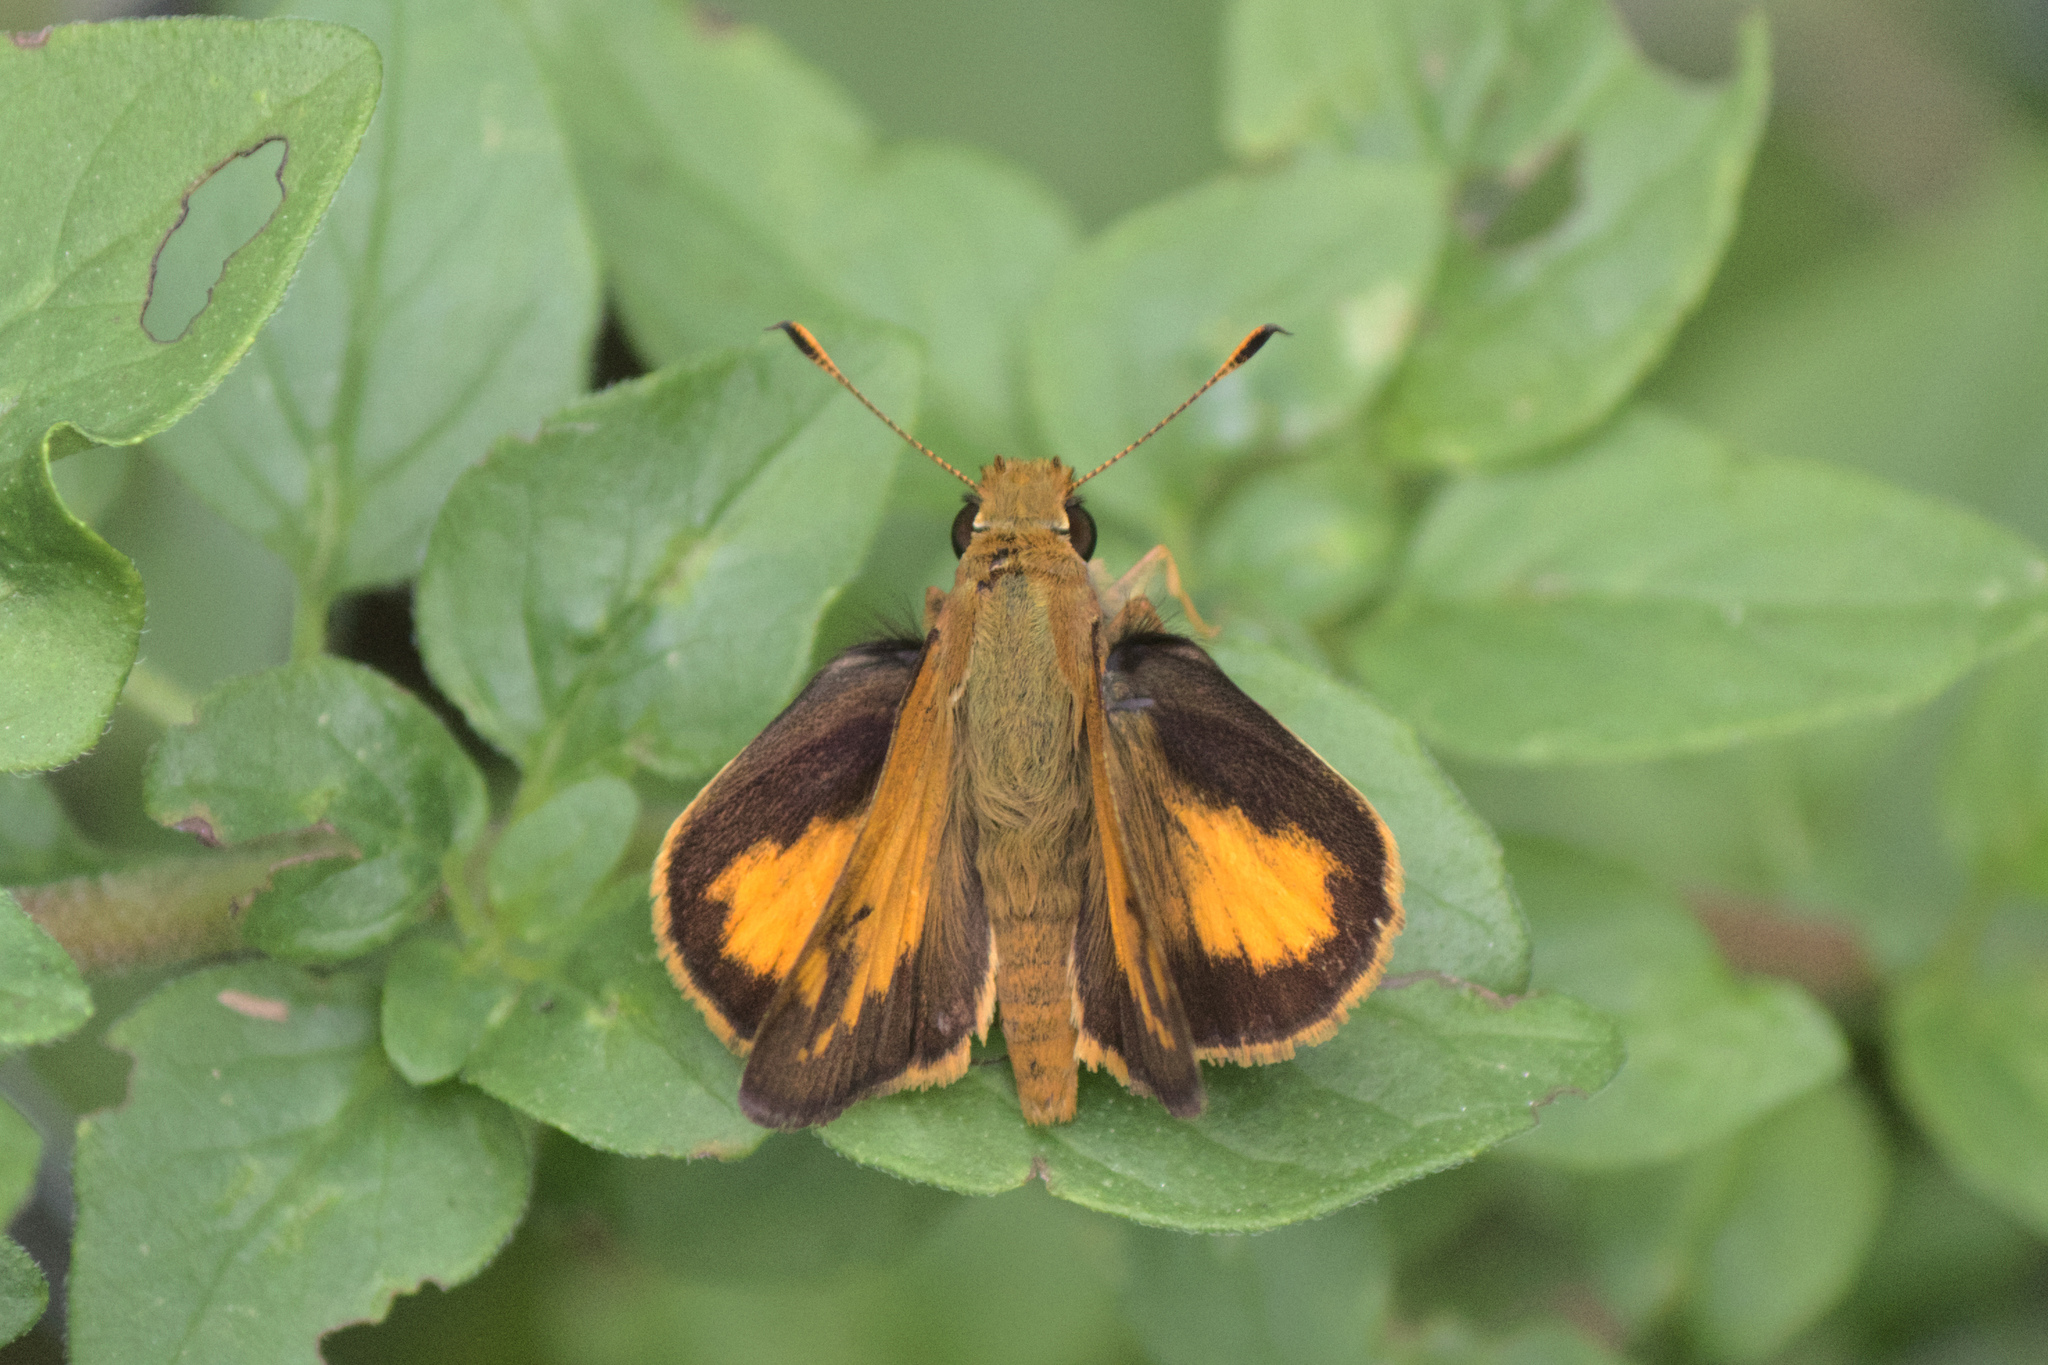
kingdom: Animalia
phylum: Arthropoda
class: Insecta
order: Lepidoptera
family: Hesperiidae
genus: Lon
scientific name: Lon zabulon
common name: Zabulon skipper
